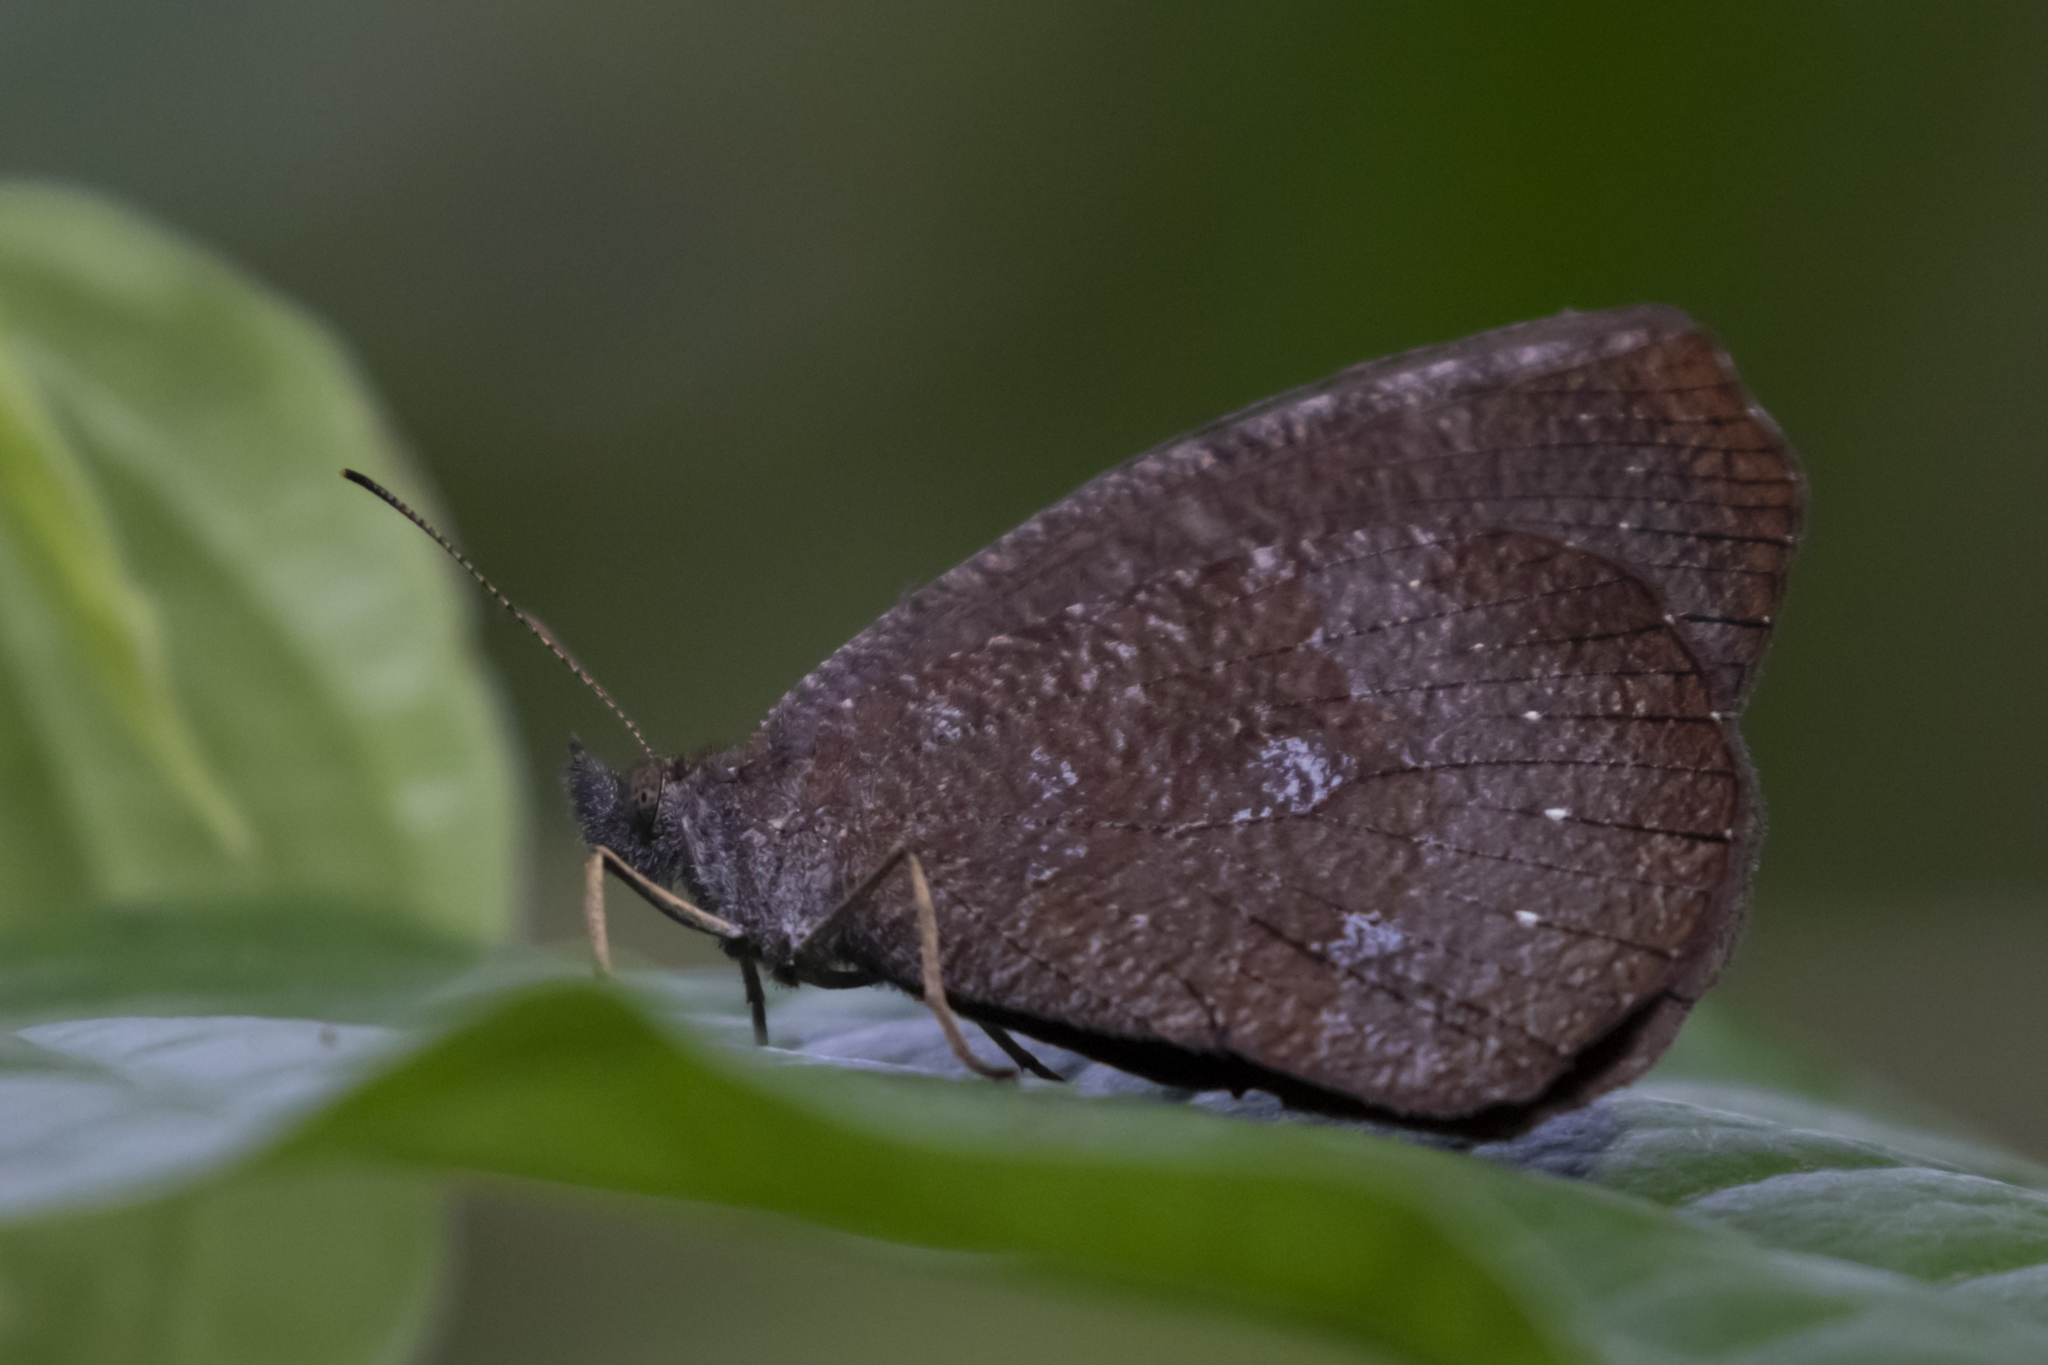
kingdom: Animalia
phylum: Arthropoda
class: Insecta
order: Lepidoptera
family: Nymphalidae
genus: Godartiana
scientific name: Godartiana muscosa
